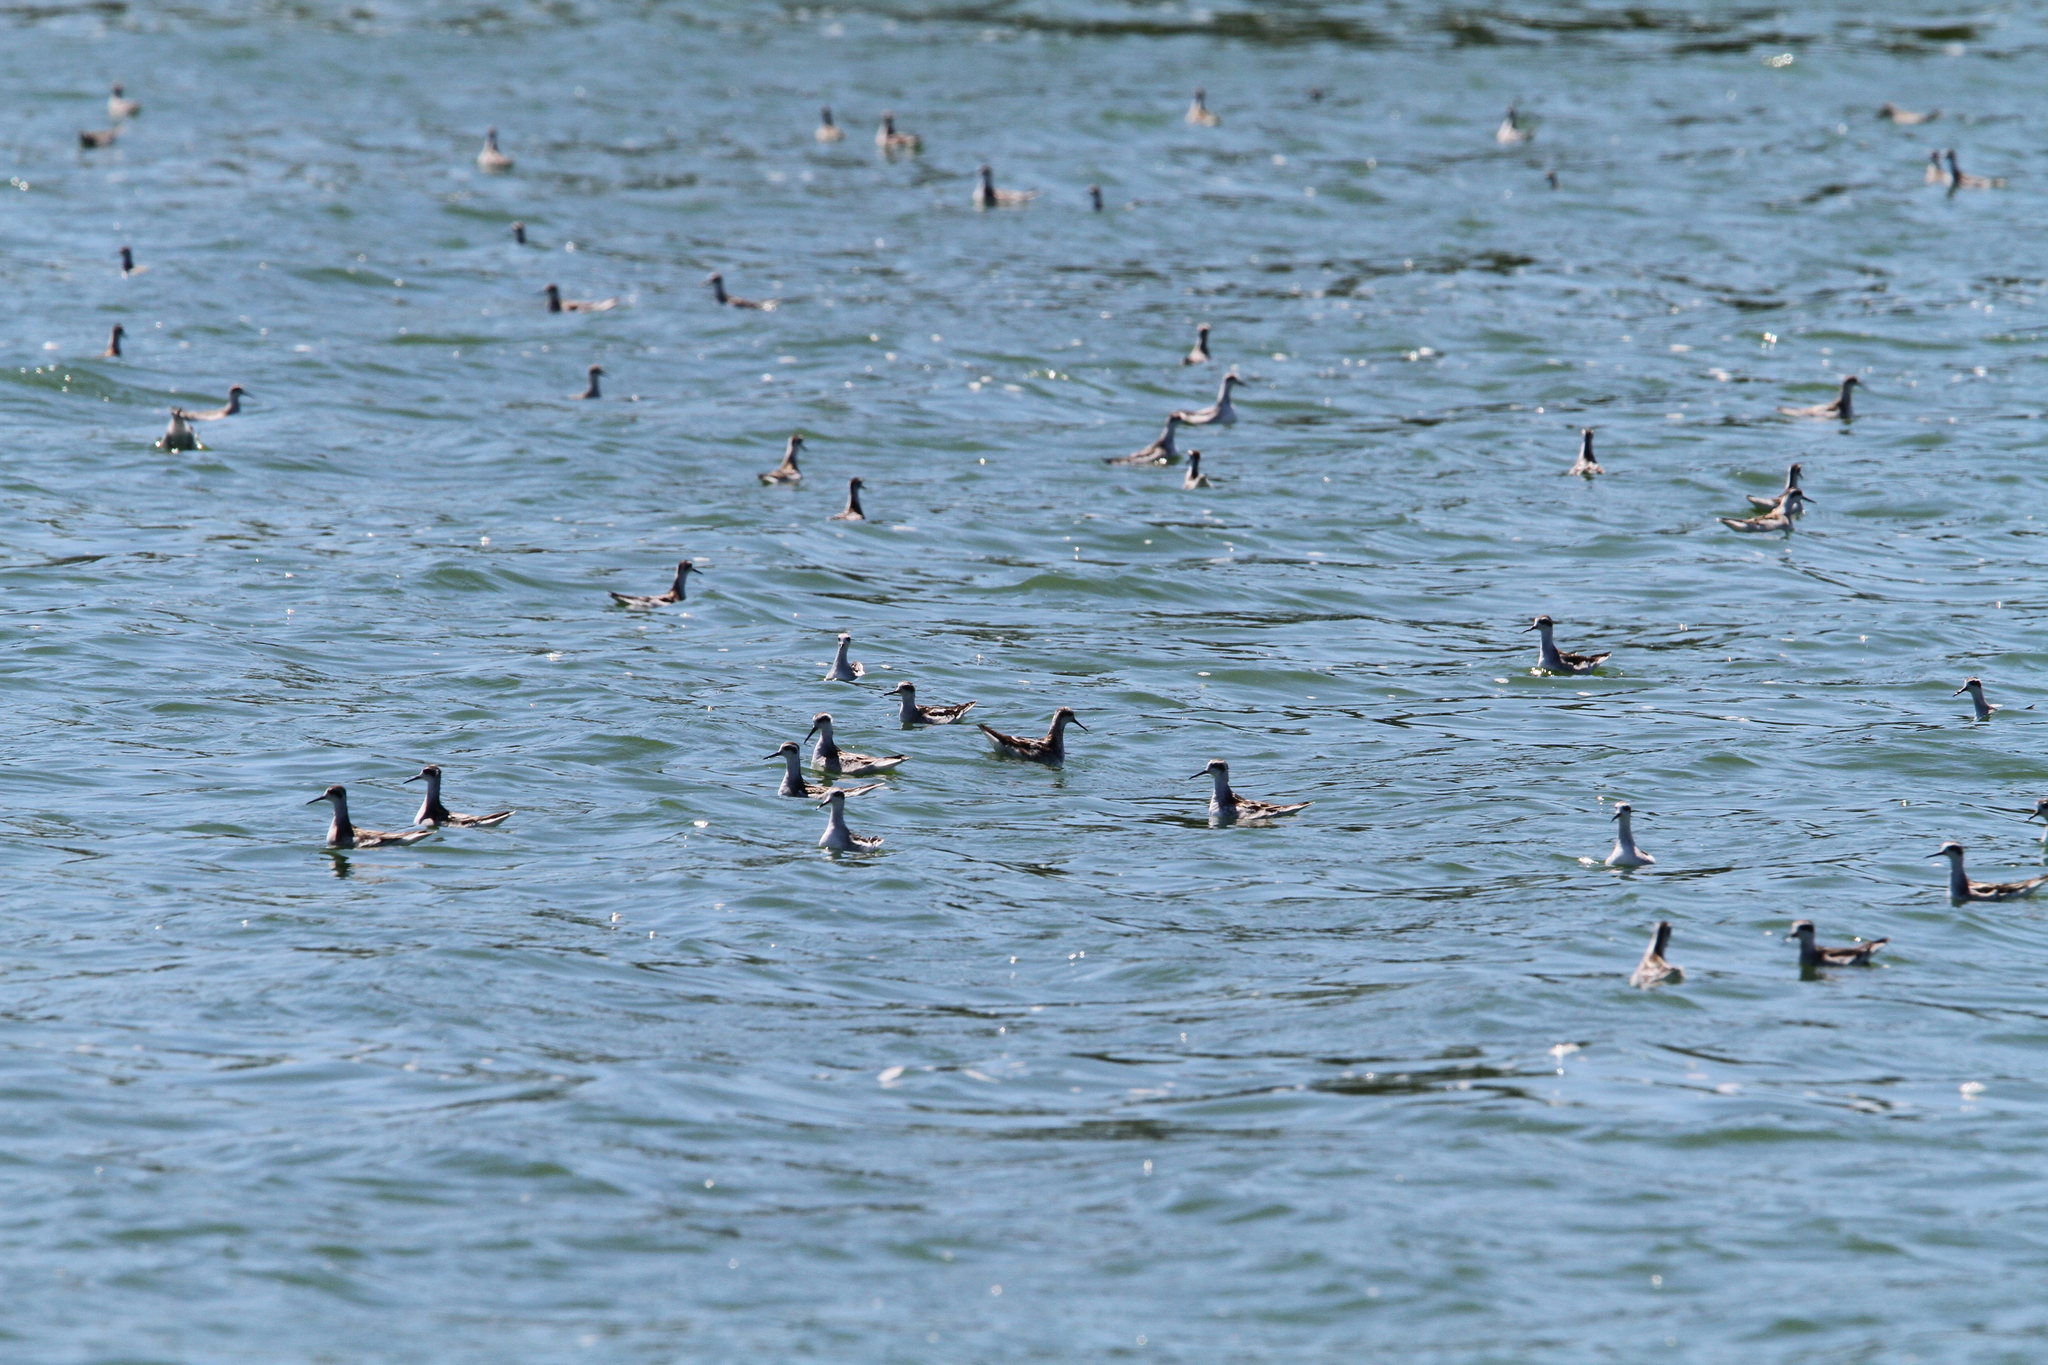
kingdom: Animalia
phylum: Chordata
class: Aves
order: Charadriiformes
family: Scolopacidae
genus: Phalaropus
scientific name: Phalaropus lobatus
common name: Red-necked phalarope
